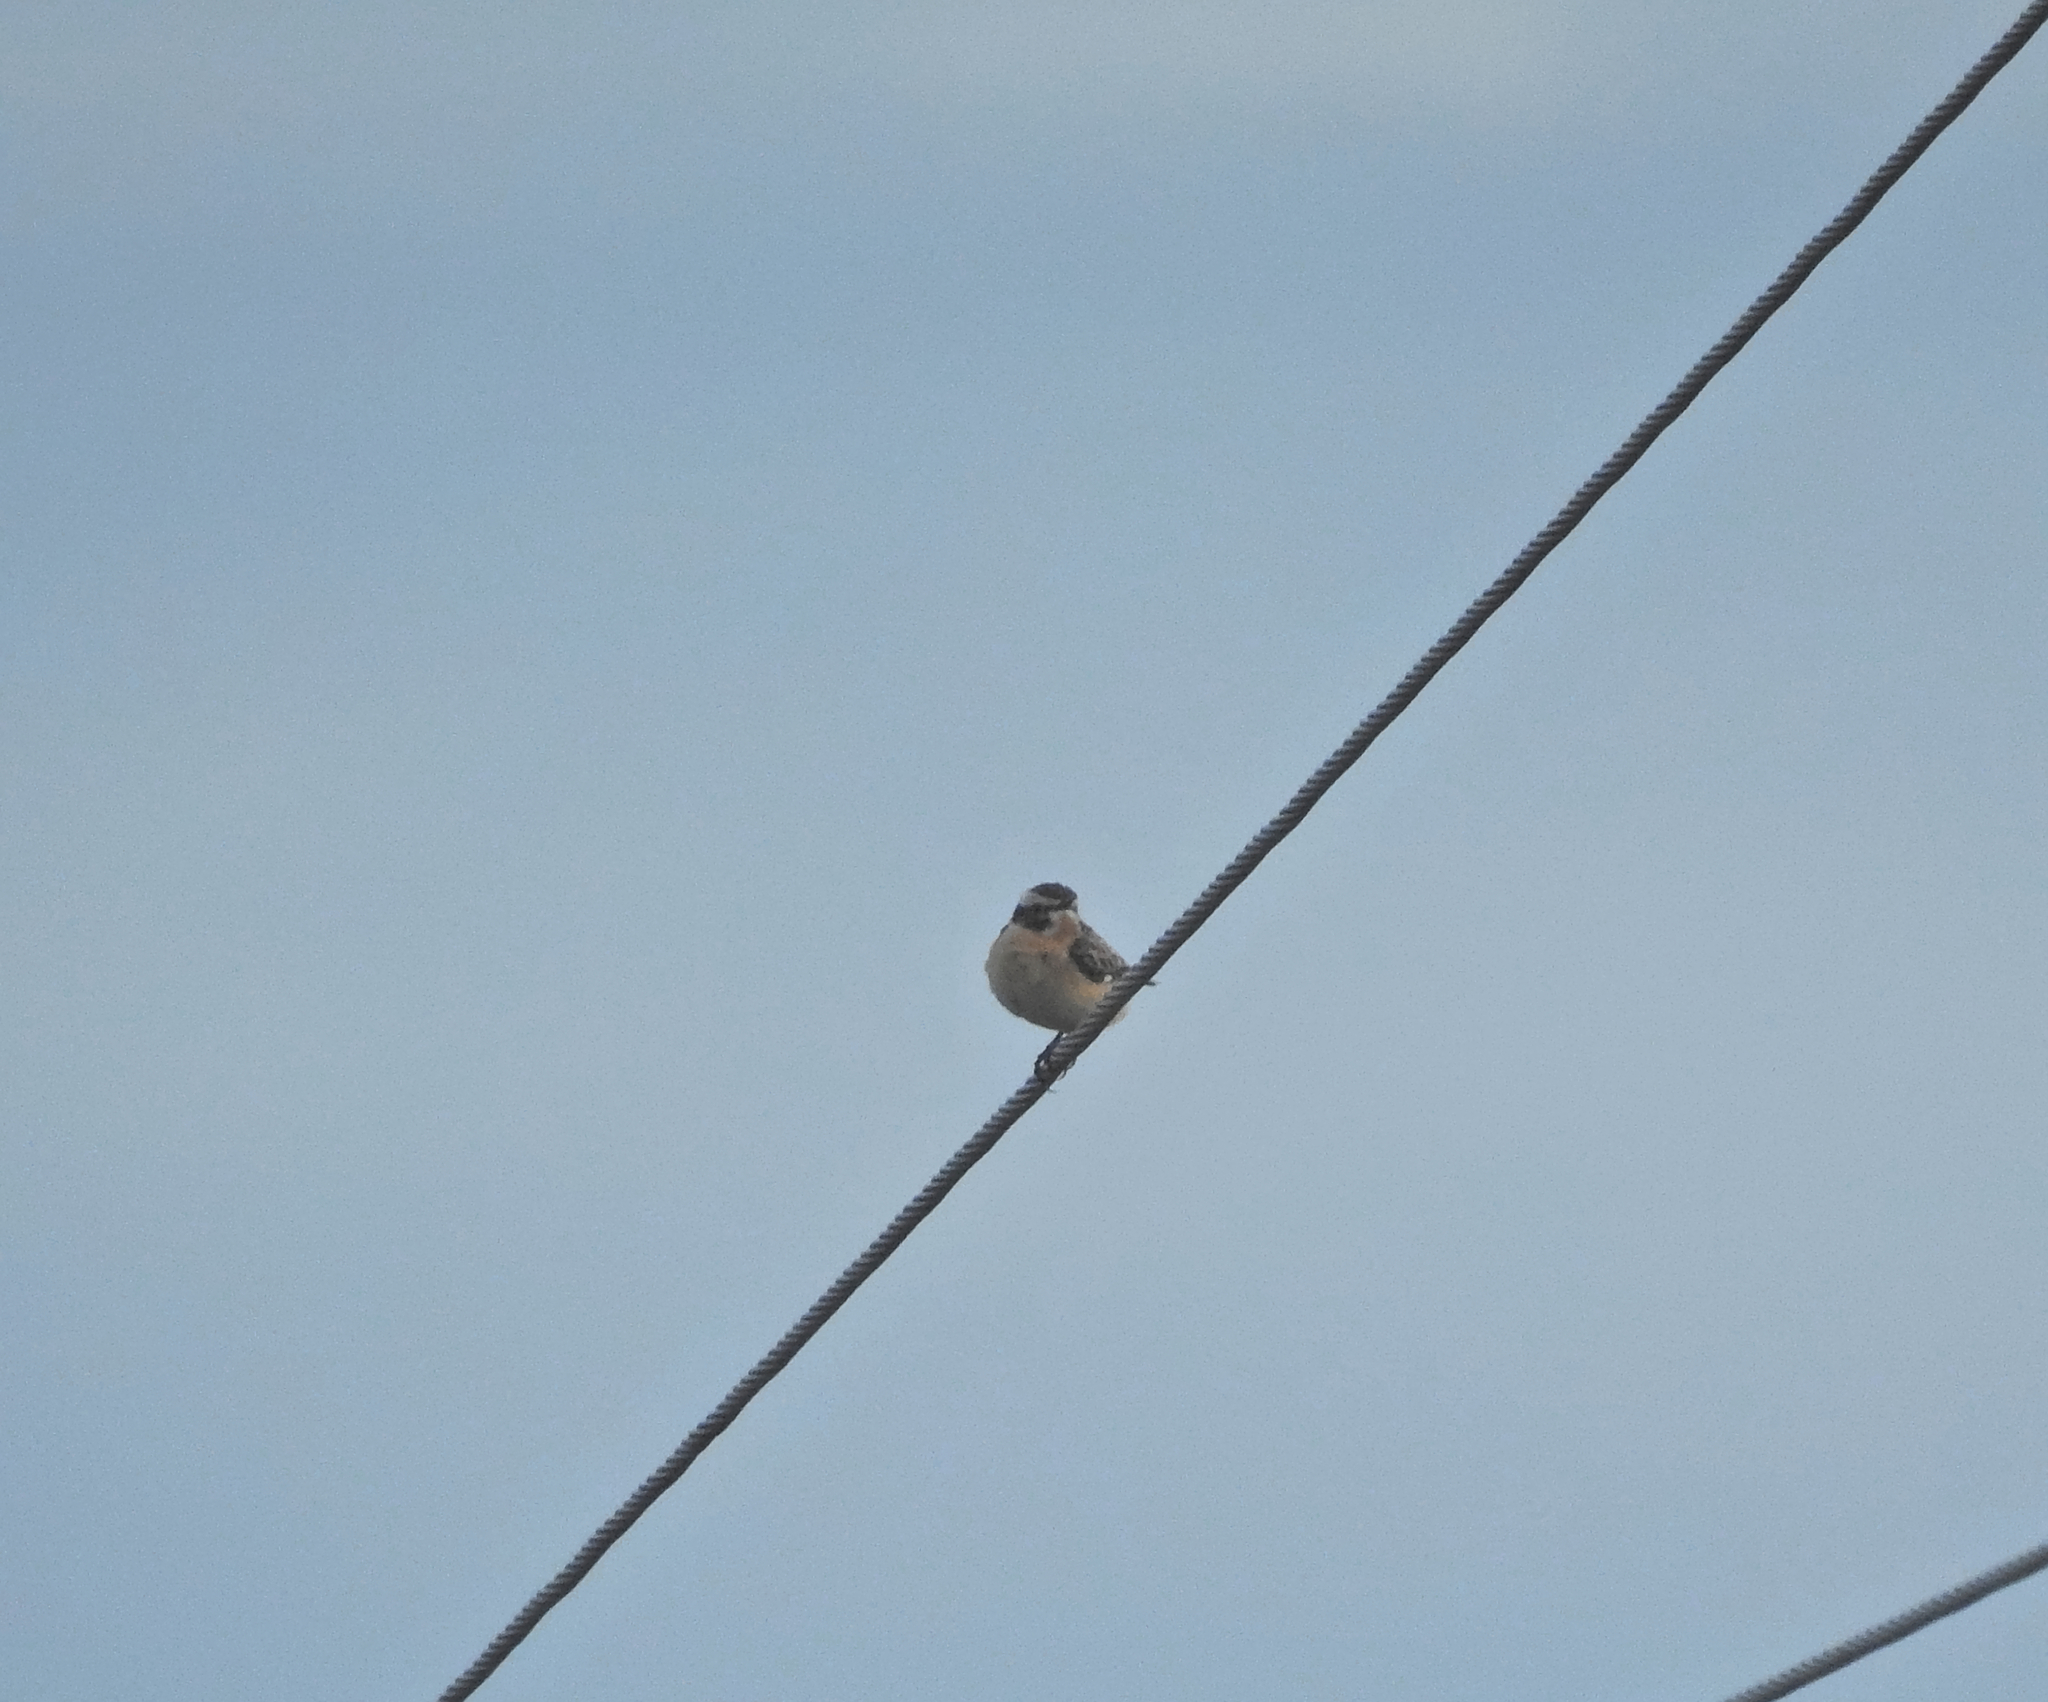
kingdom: Animalia
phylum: Chordata
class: Aves
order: Passeriformes
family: Muscicapidae
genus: Saxicola
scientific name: Saxicola rubetra
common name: Whinchat
